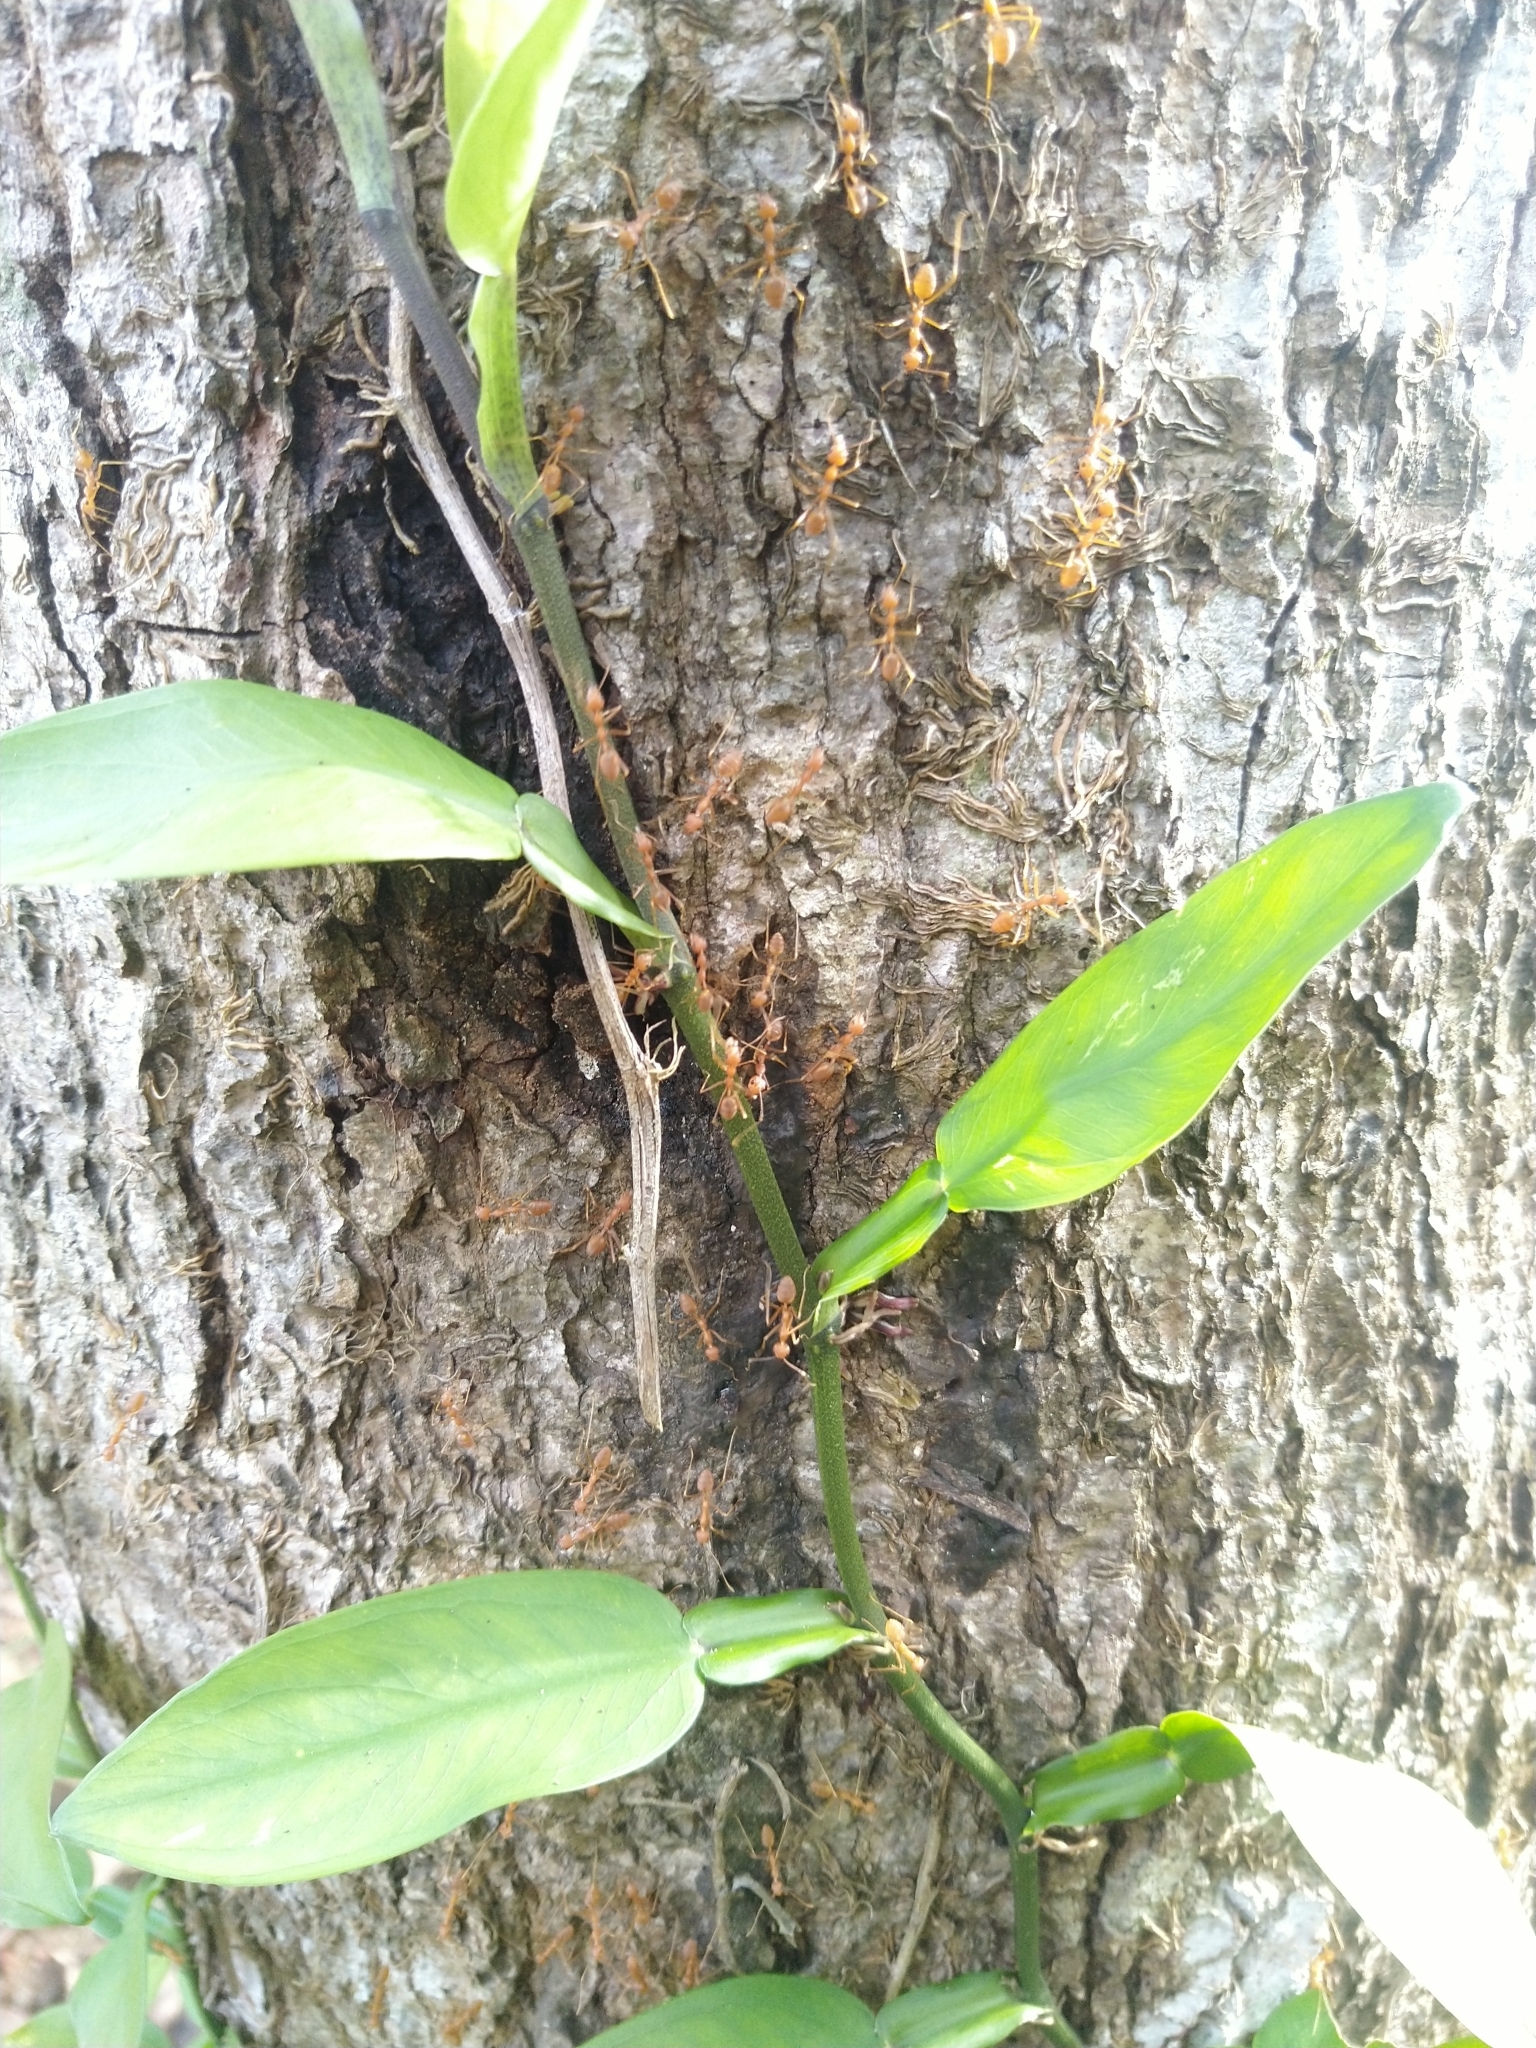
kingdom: Animalia
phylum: Arthropoda
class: Insecta
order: Hymenoptera
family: Formicidae
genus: Oecophylla
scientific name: Oecophylla smaragdina
